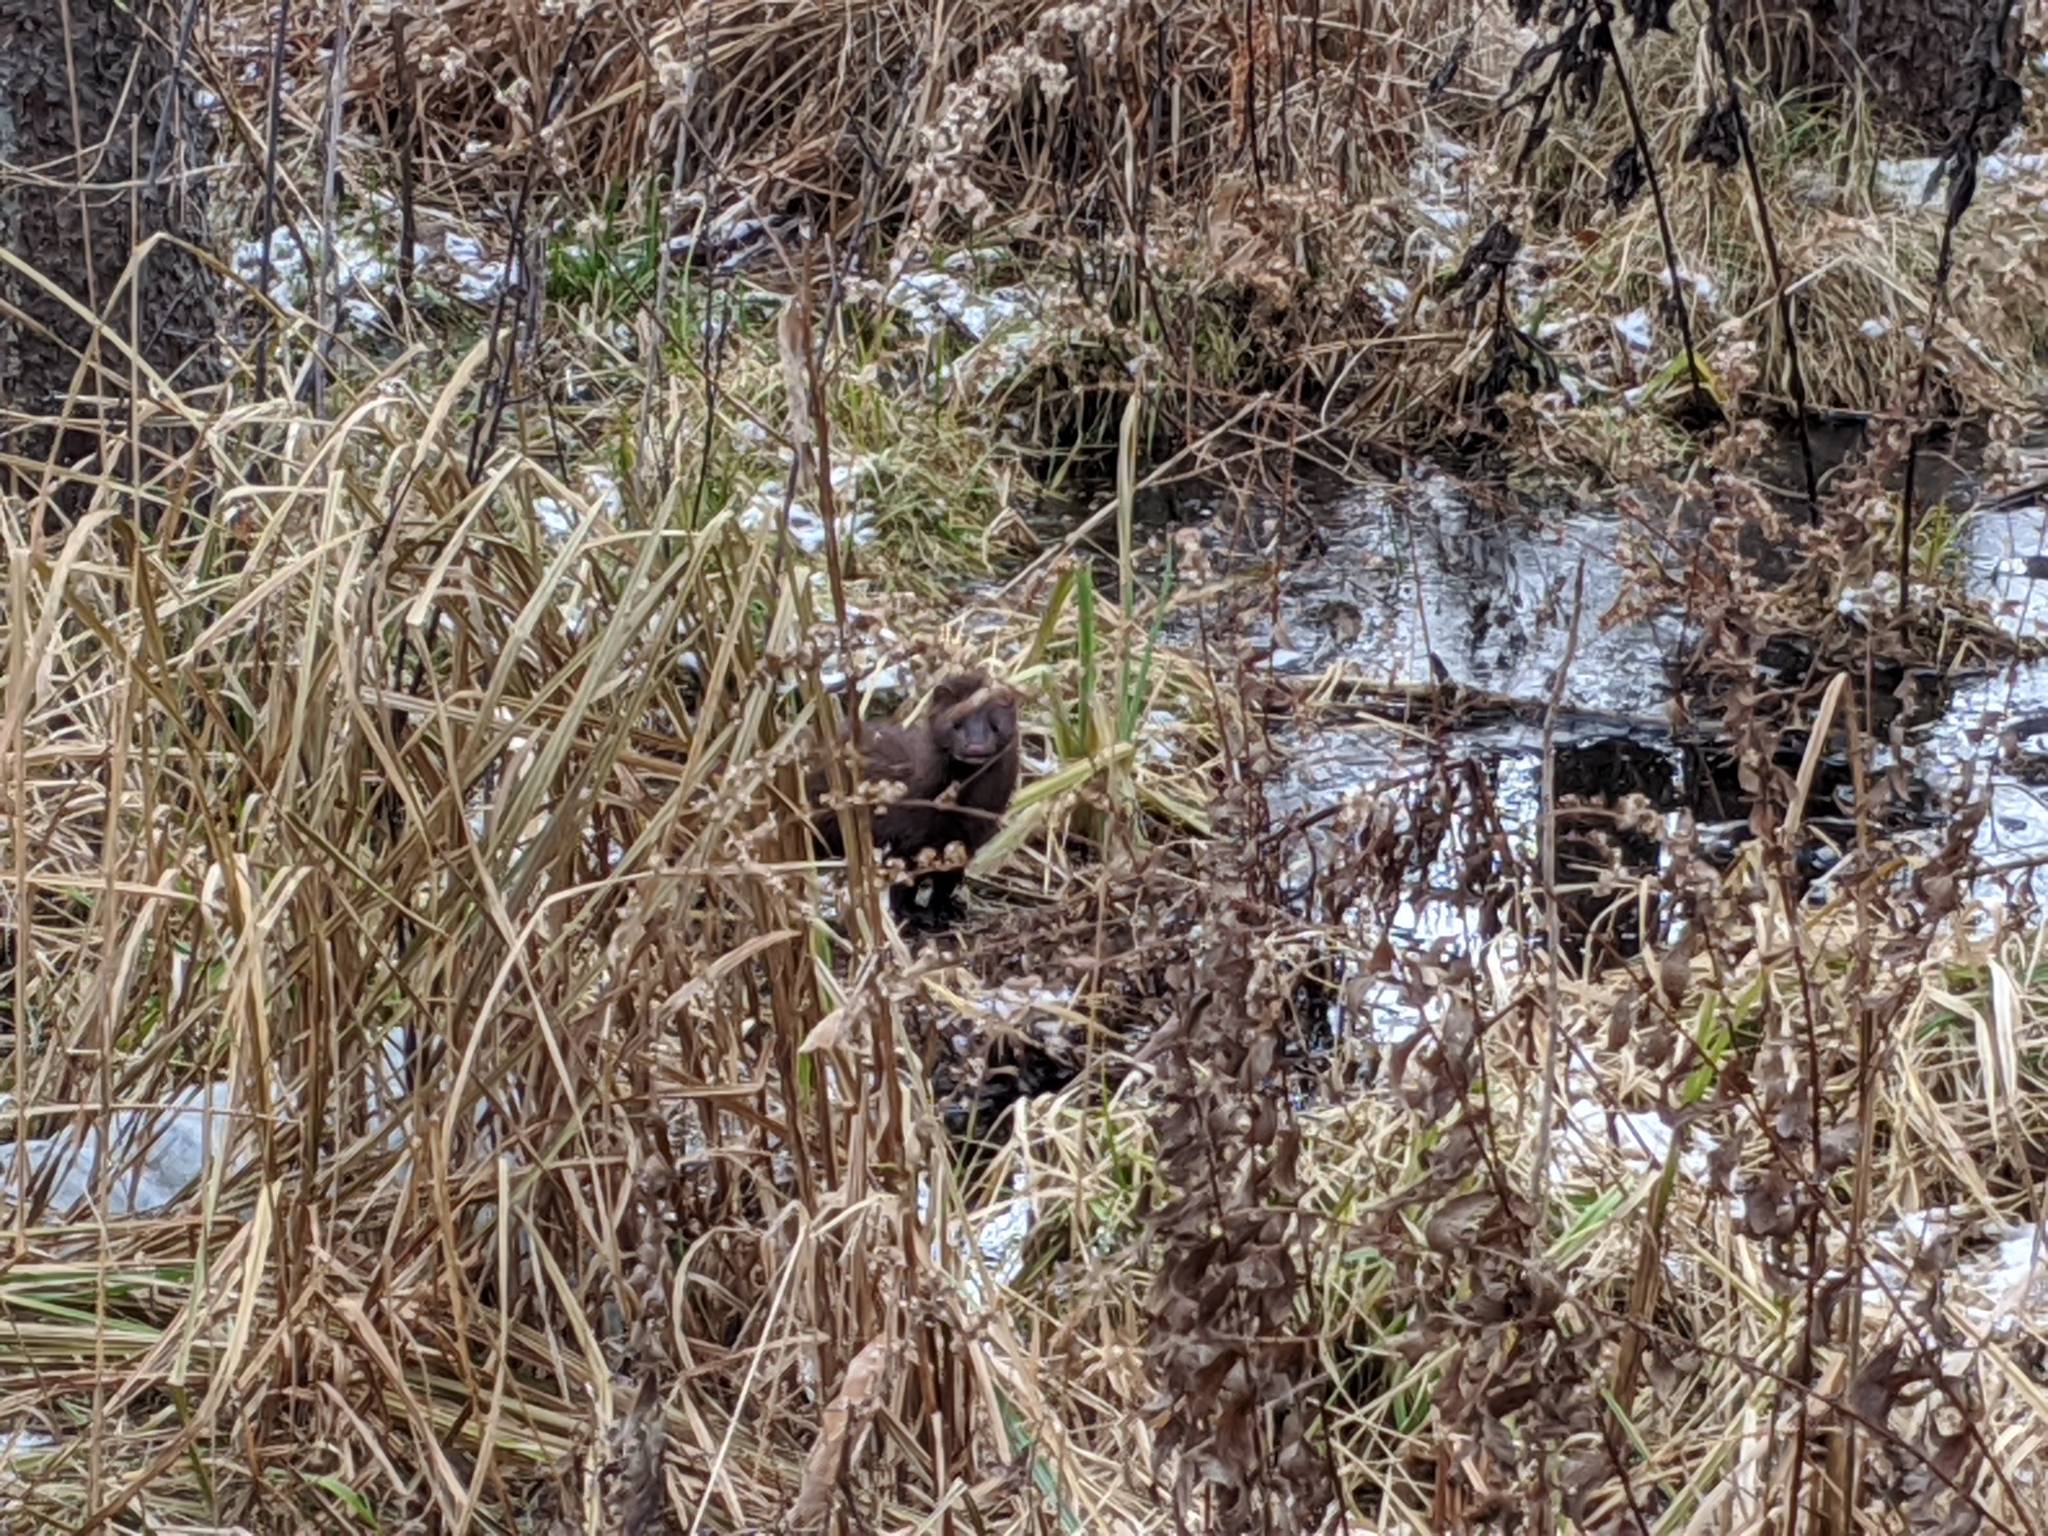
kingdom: Animalia
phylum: Chordata
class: Mammalia
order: Carnivora
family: Mustelidae
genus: Mustela
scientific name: Mustela
